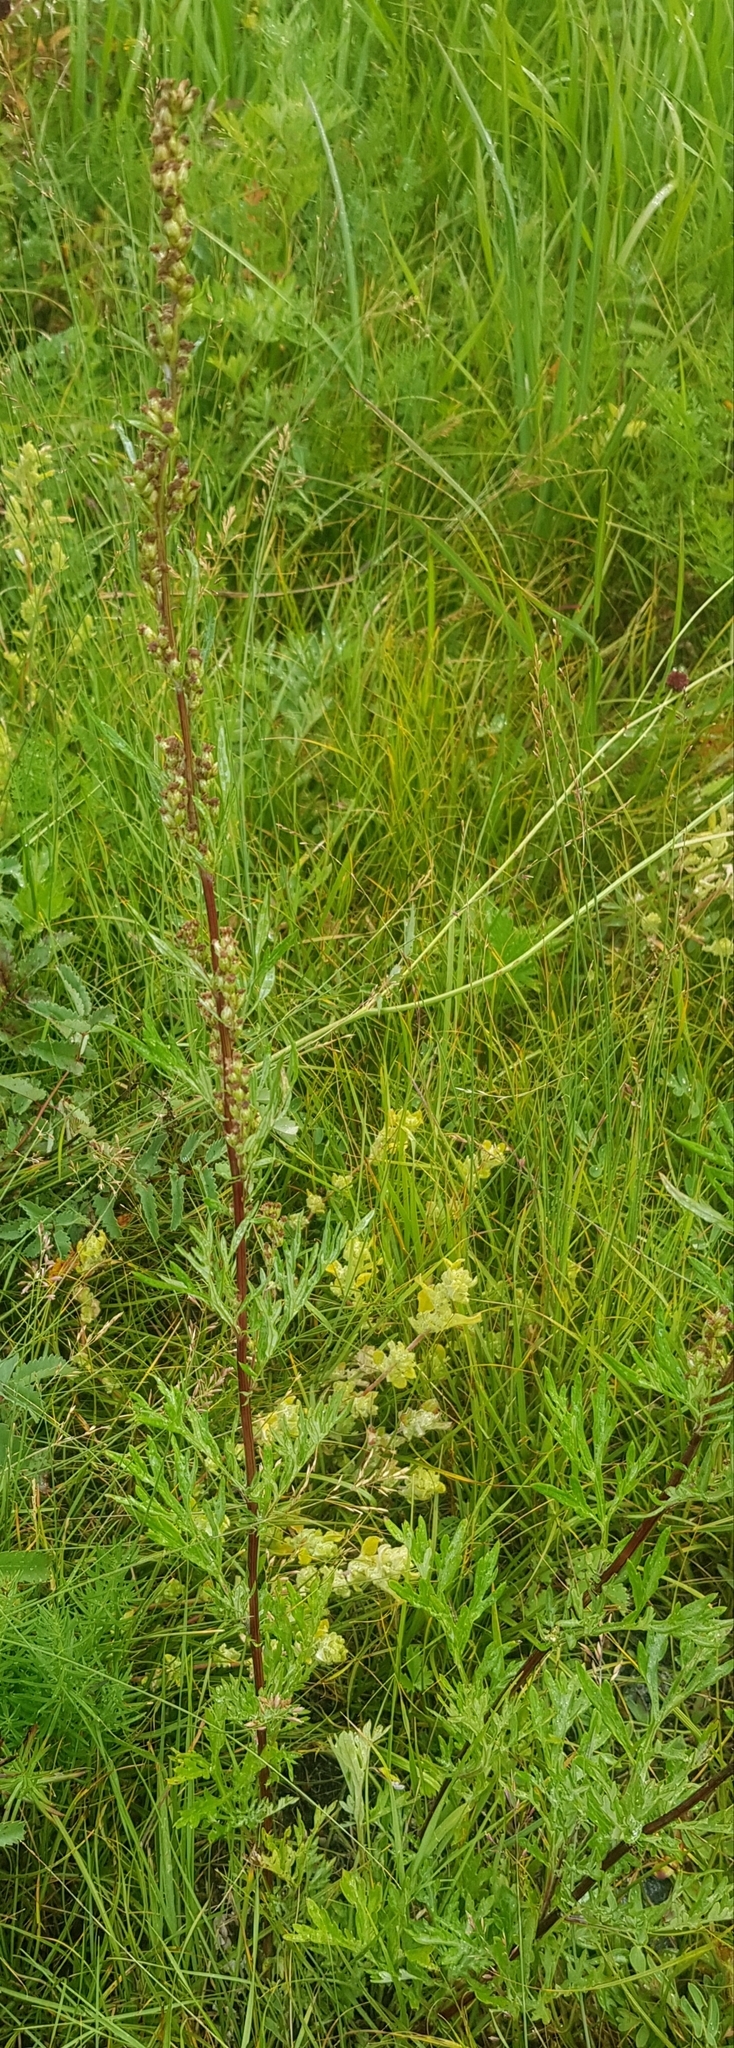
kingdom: Plantae
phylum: Tracheophyta
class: Magnoliopsida
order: Asterales
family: Asteraceae
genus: Artemisia
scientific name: Artemisia vulgaris
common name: Mugwort
